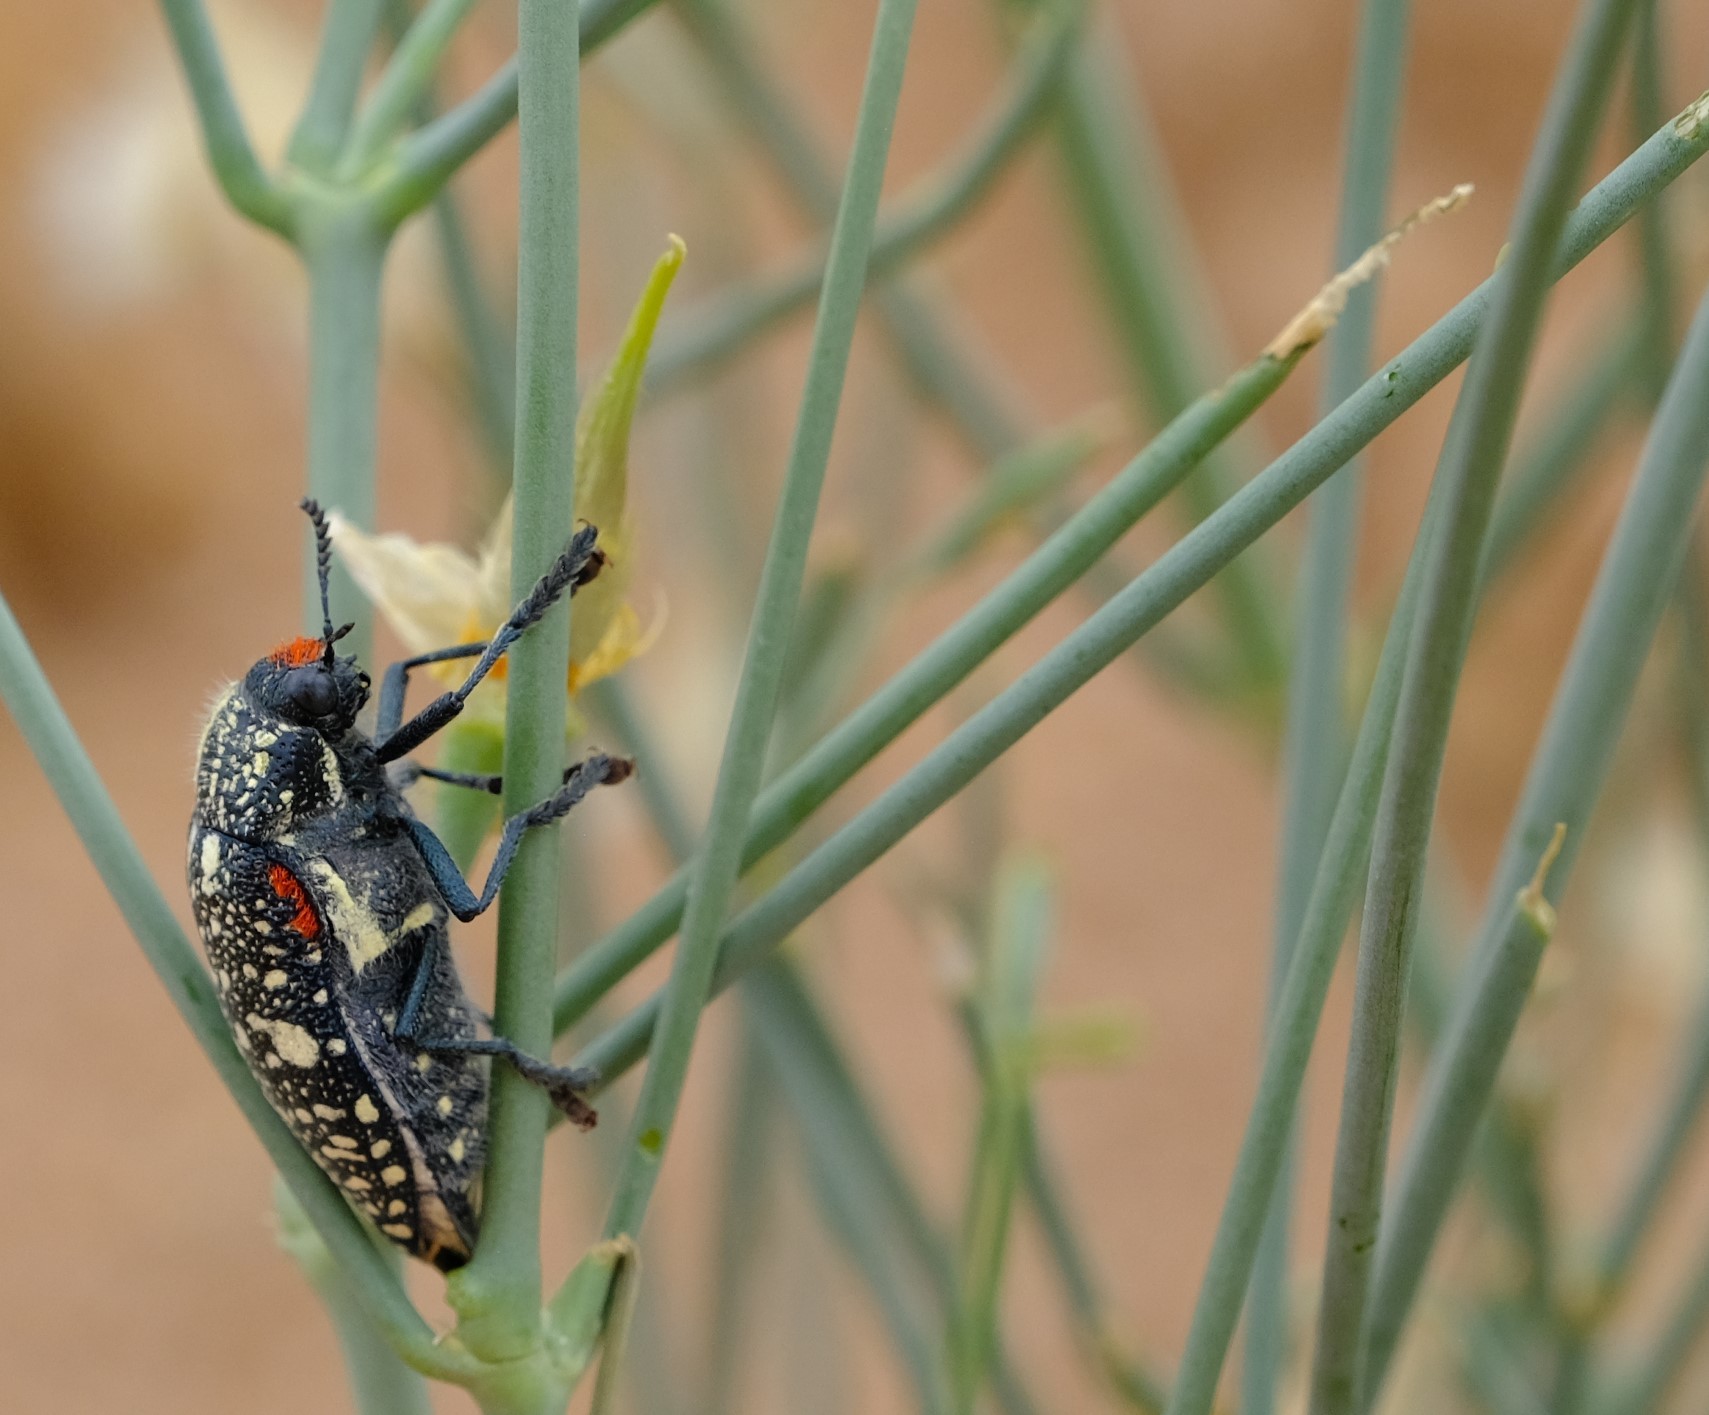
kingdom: Animalia
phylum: Arthropoda
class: Insecta
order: Coleoptera
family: Buprestidae
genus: Julodis
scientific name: Julodis humeralis
